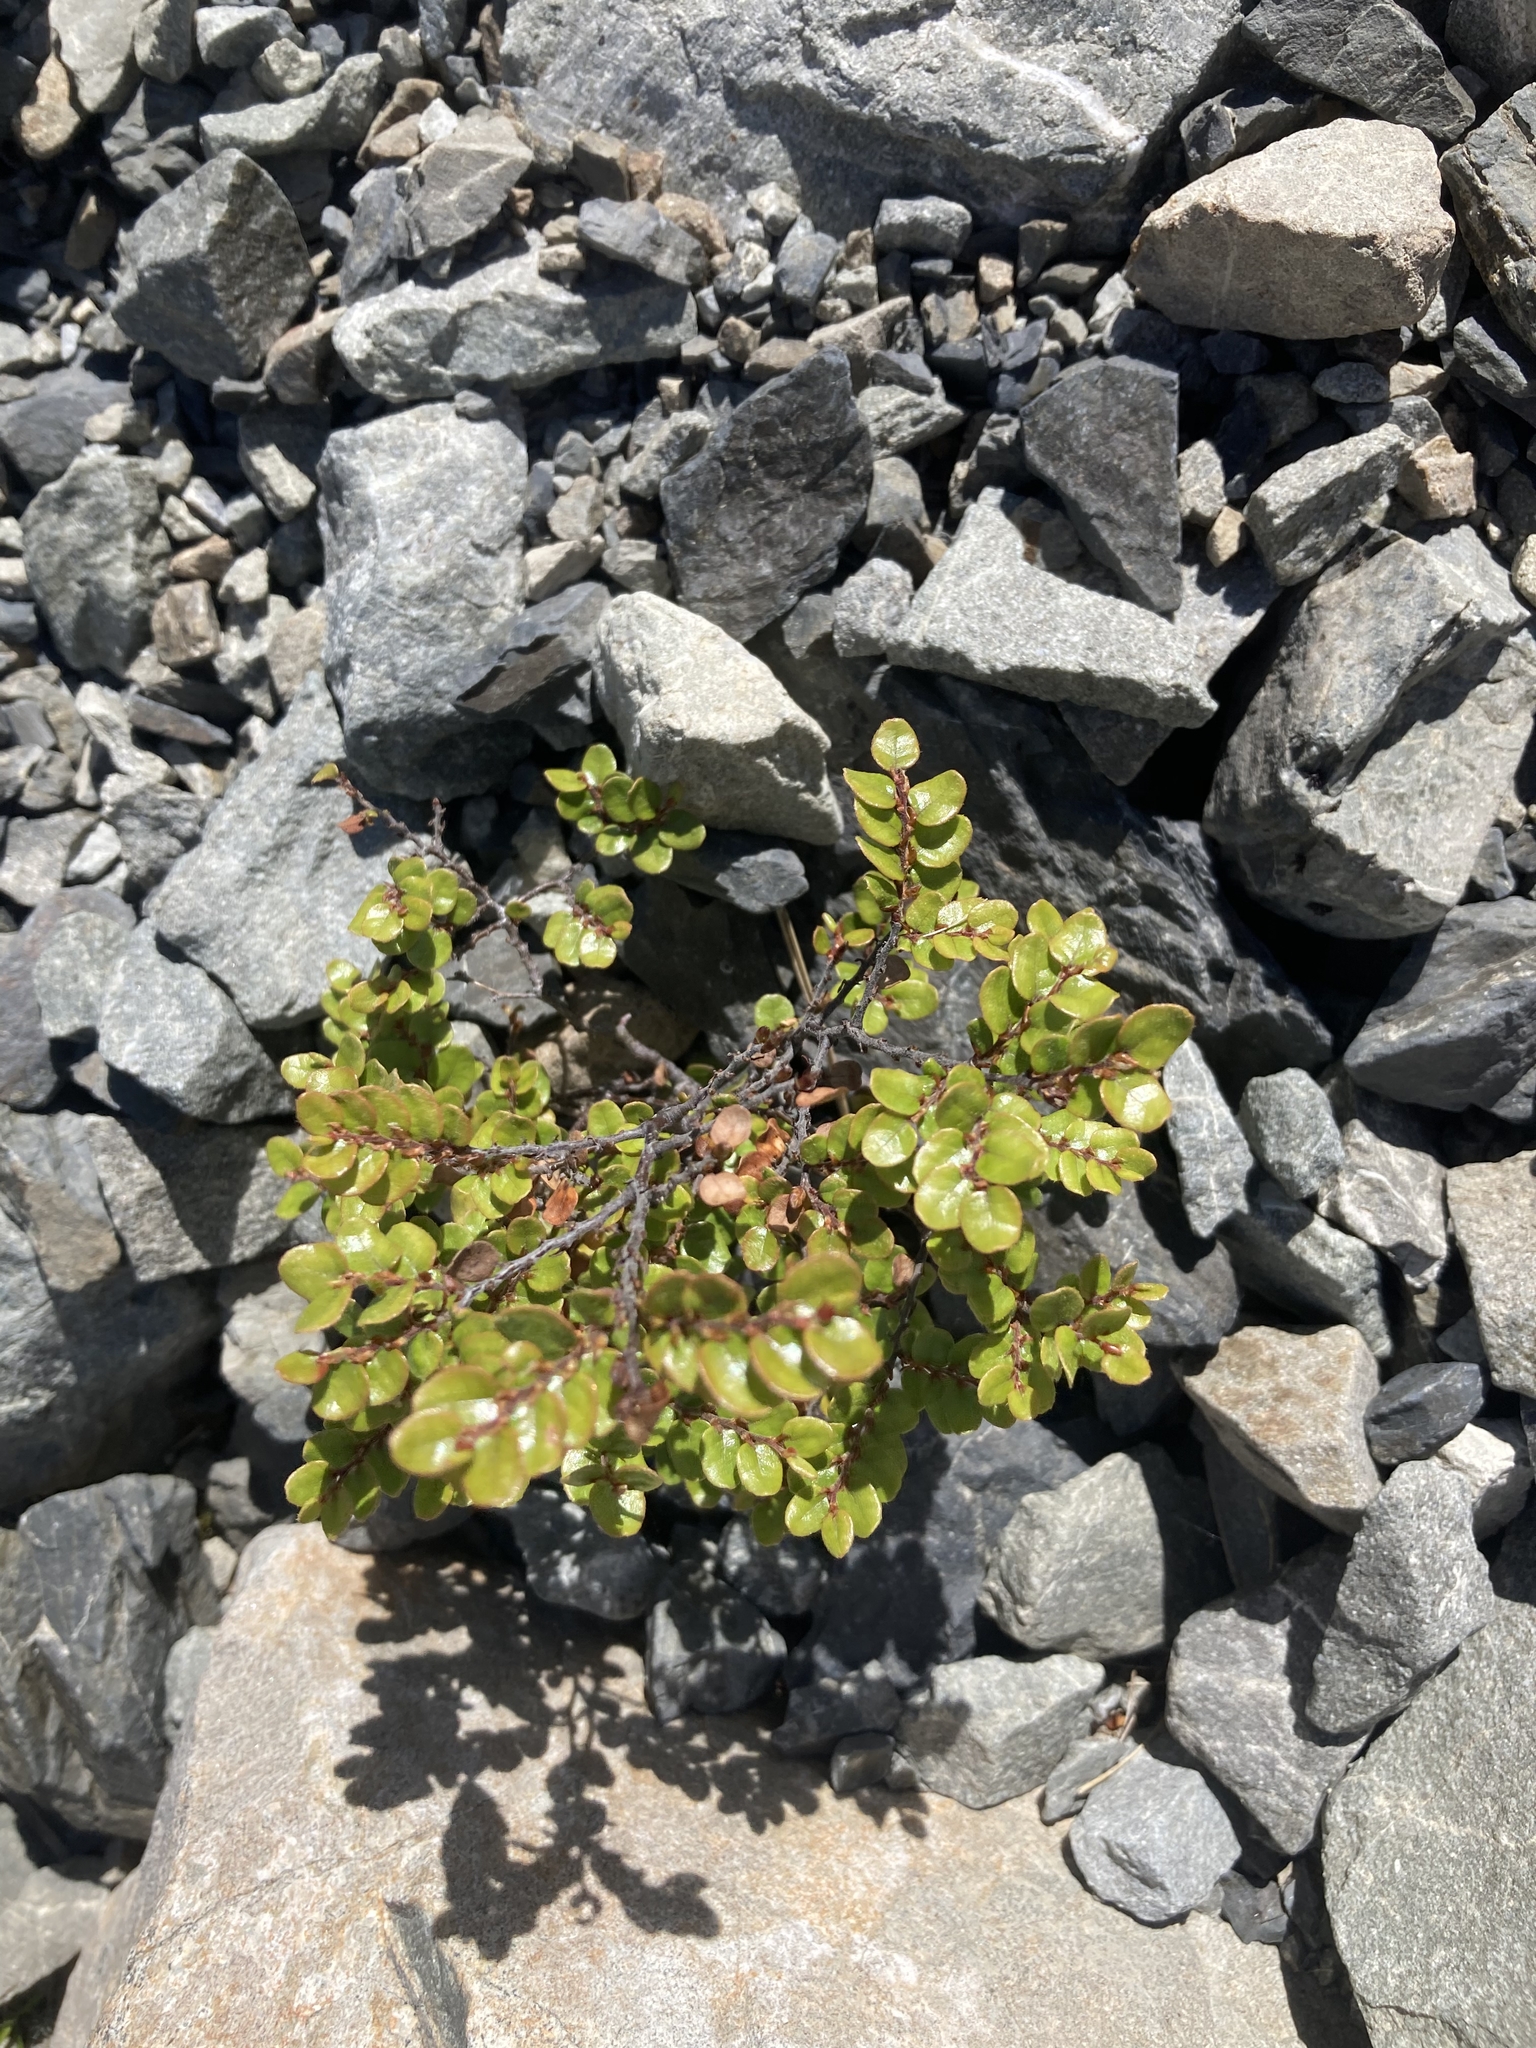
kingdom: Plantae
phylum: Tracheophyta
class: Magnoliopsida
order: Fagales
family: Nothofagaceae
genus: Nothofagus
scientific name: Nothofagus cliffortioides
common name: Mountain beech
